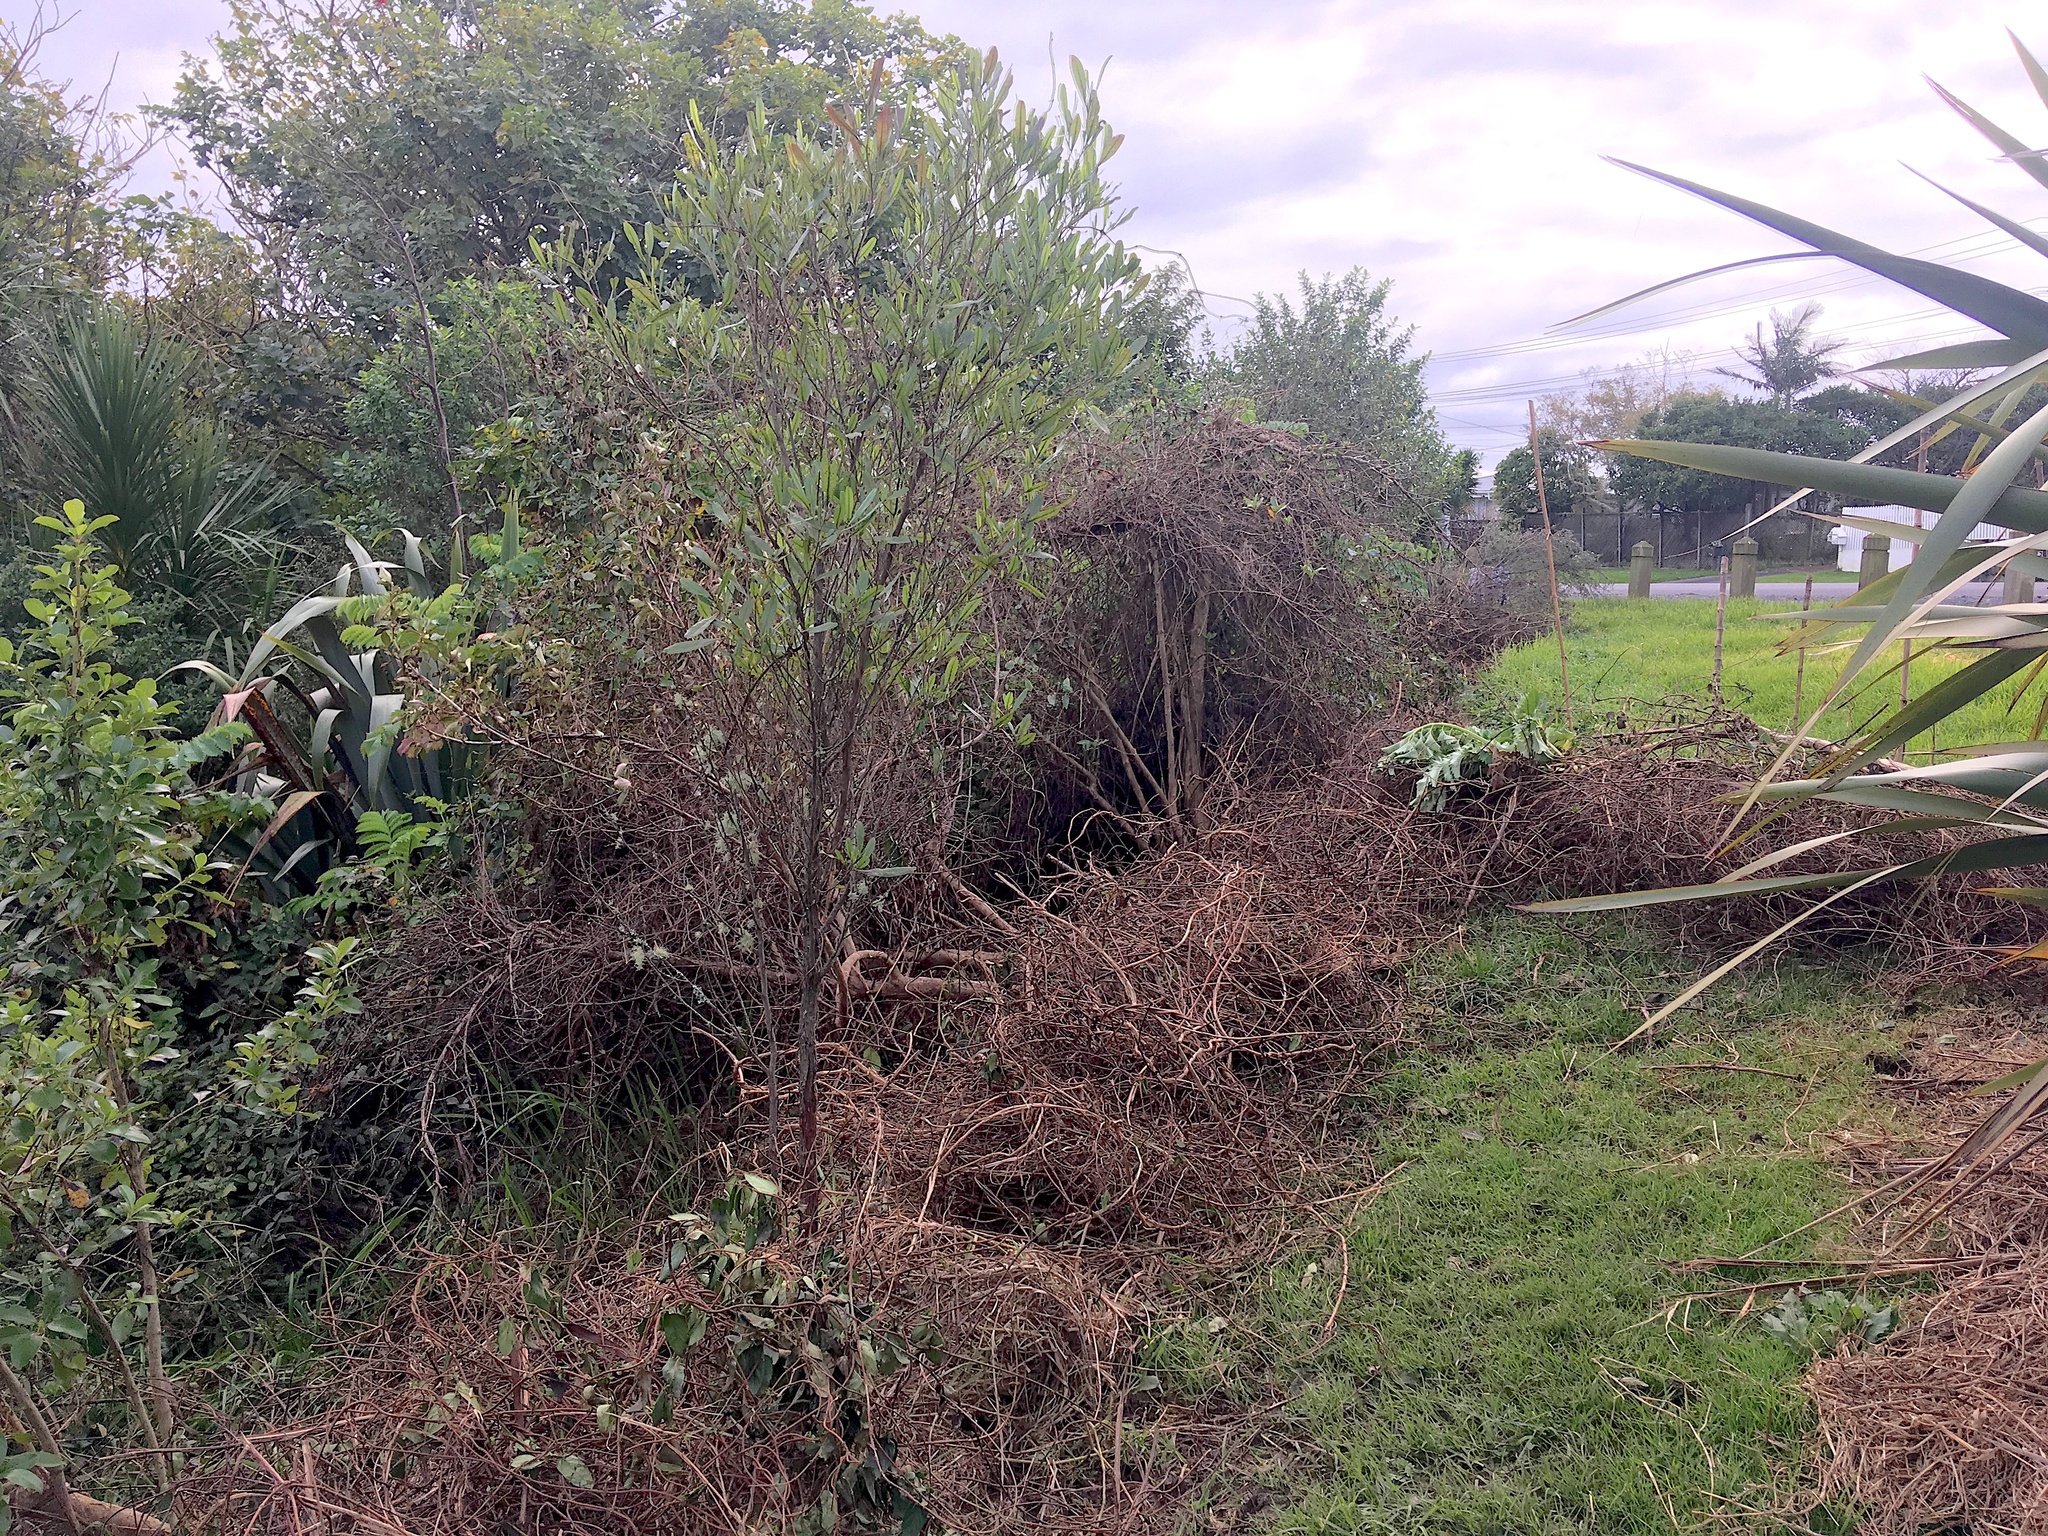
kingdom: Plantae
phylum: Tracheophyta
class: Magnoliopsida
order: Sapindales
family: Sapindaceae
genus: Dodonaea
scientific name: Dodonaea viscosa
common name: Hopbush
